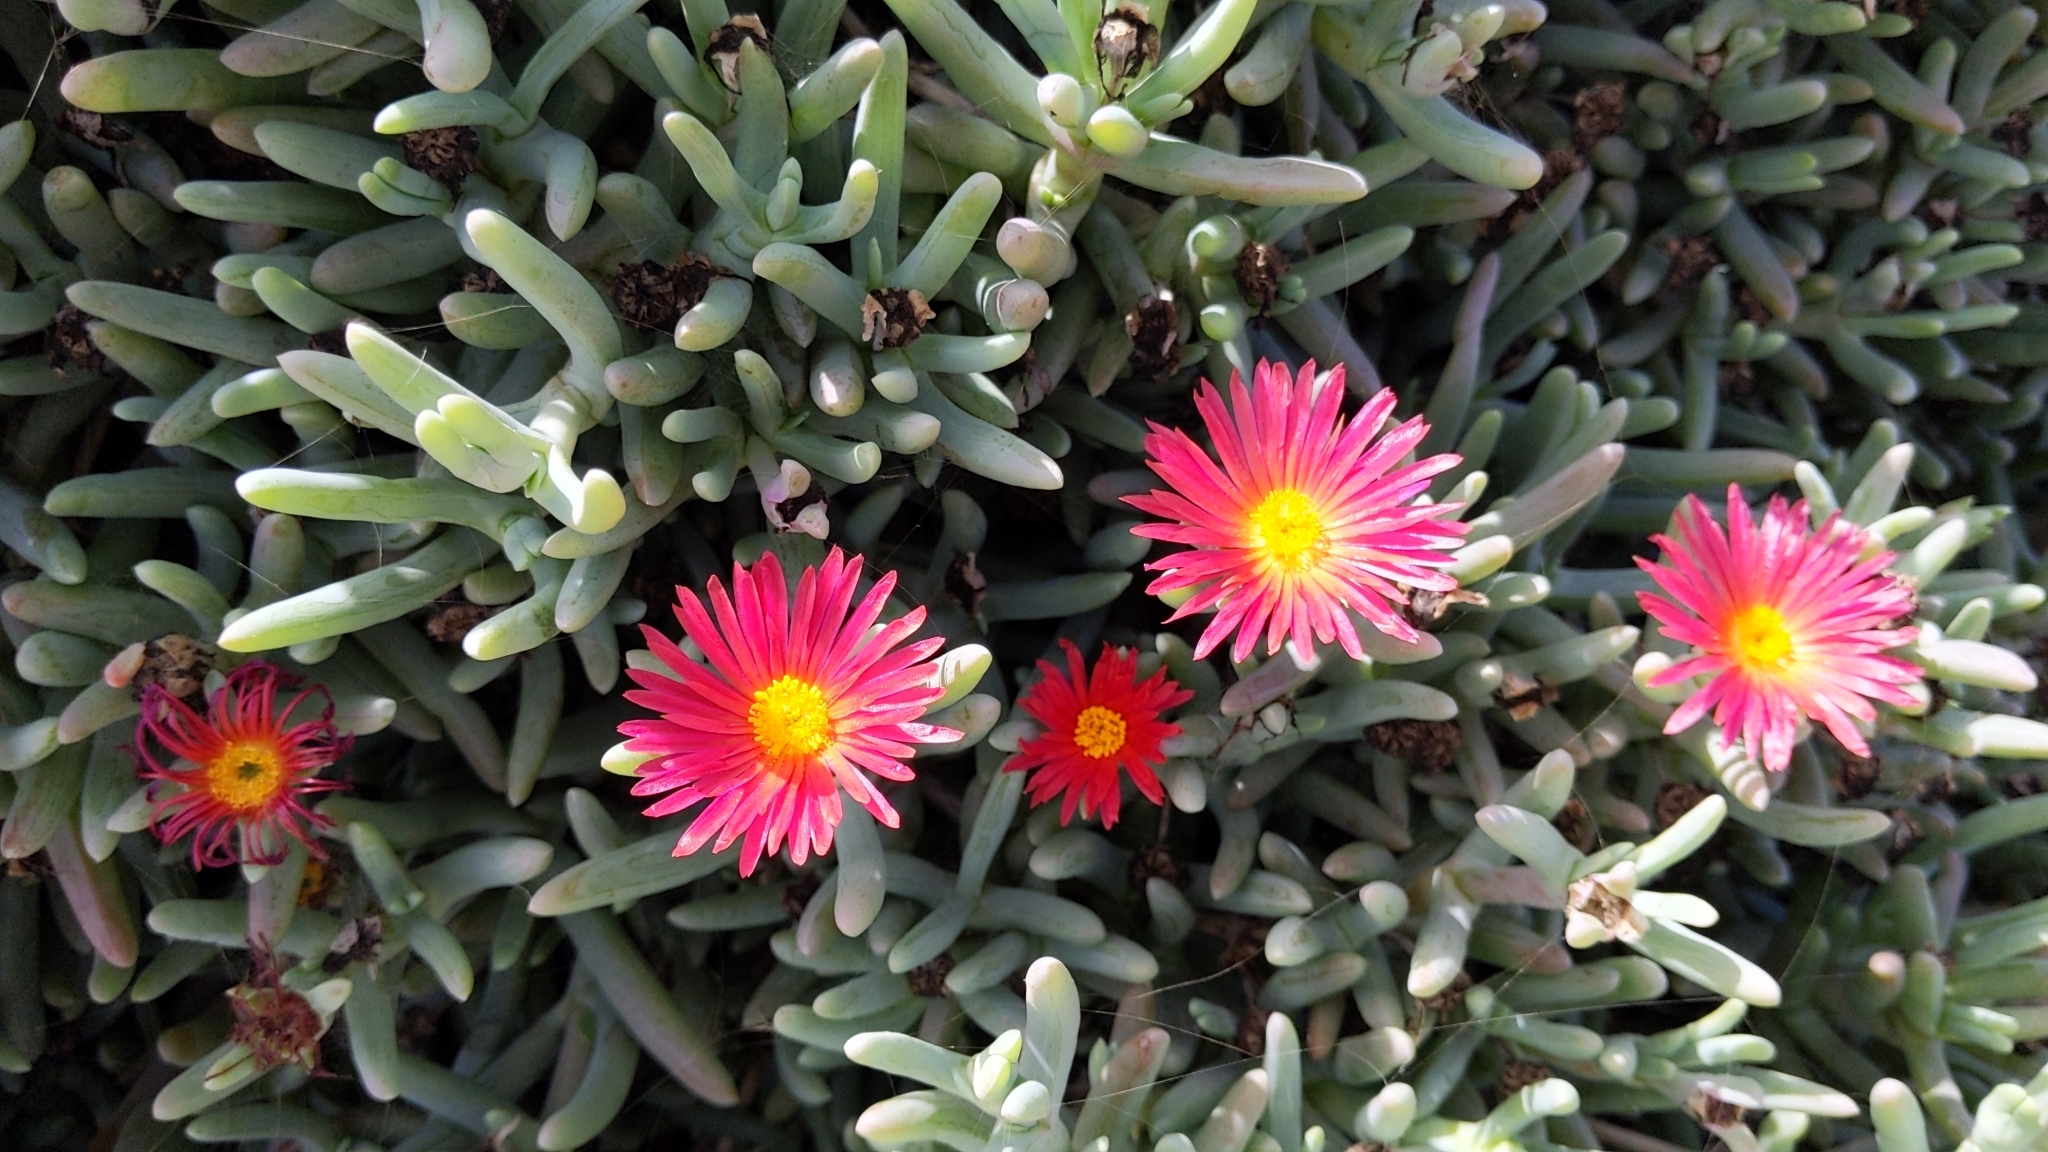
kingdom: Plantae
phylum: Tracheophyta
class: Magnoliopsida
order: Caryophyllales
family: Aizoaceae
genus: Malephora
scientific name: Malephora crocea
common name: Coppery mesemb
